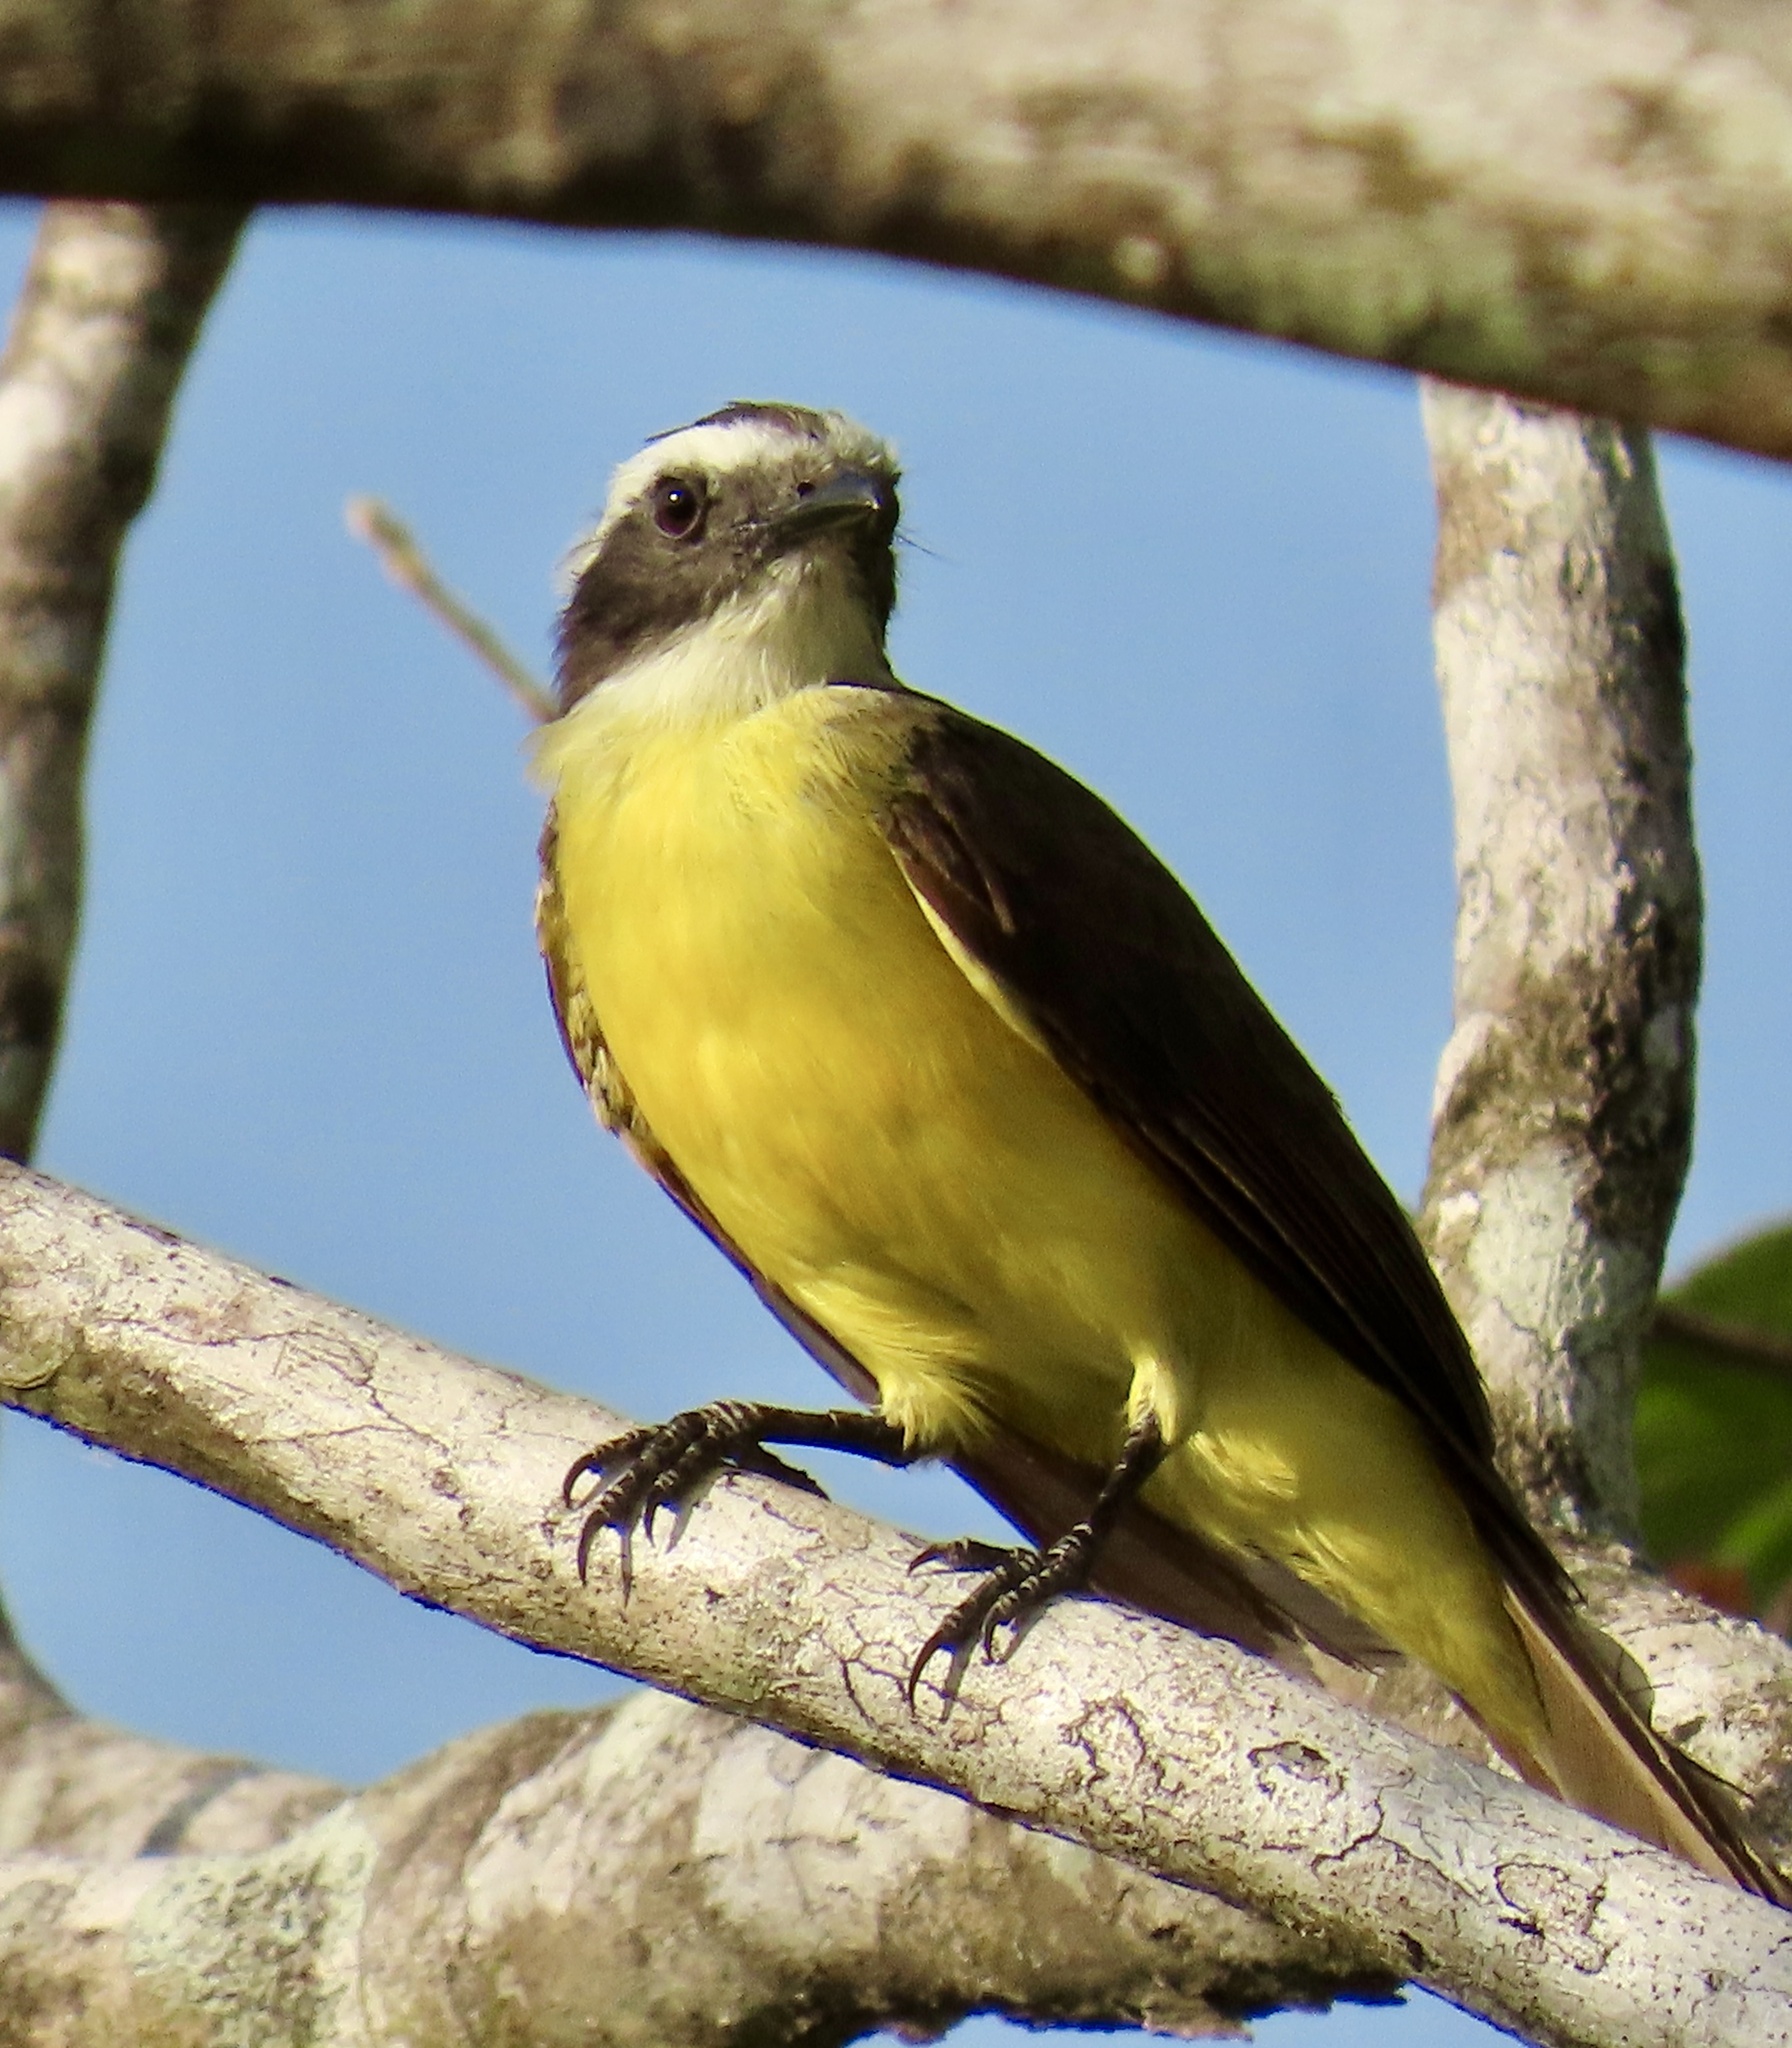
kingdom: Animalia
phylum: Chordata
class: Aves
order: Passeriformes
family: Tyrannidae
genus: Myiozetetes
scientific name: Myiozetetes cayanensis
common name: Rusty-margined flycatcher
